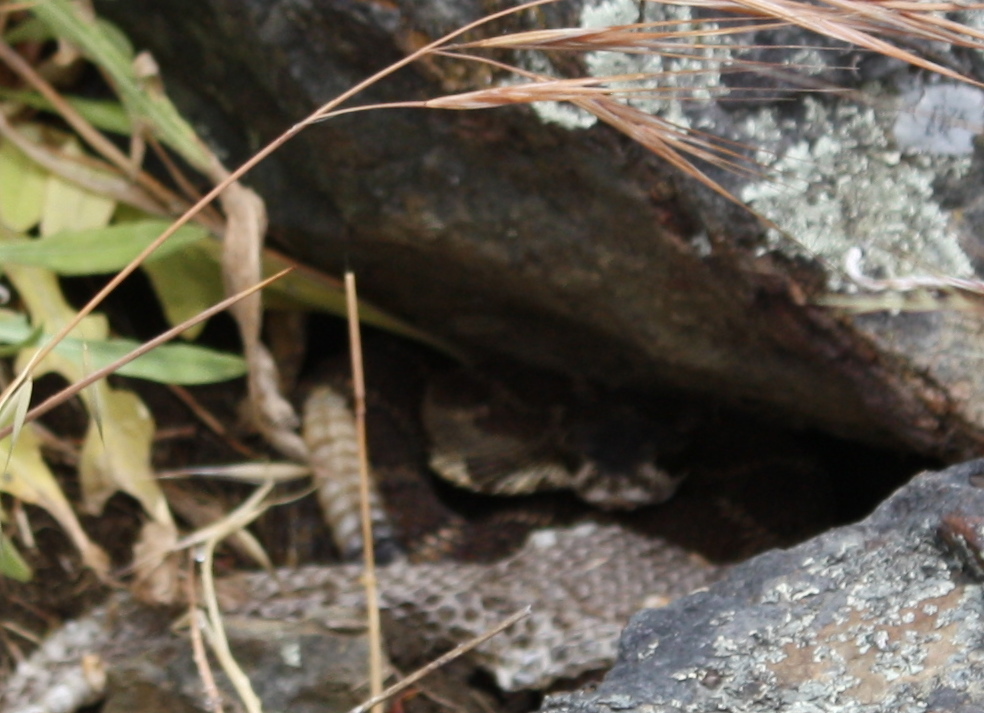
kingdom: Animalia
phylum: Chordata
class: Squamata
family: Viperidae
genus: Crotalus
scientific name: Crotalus oreganus
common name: Abyssus
